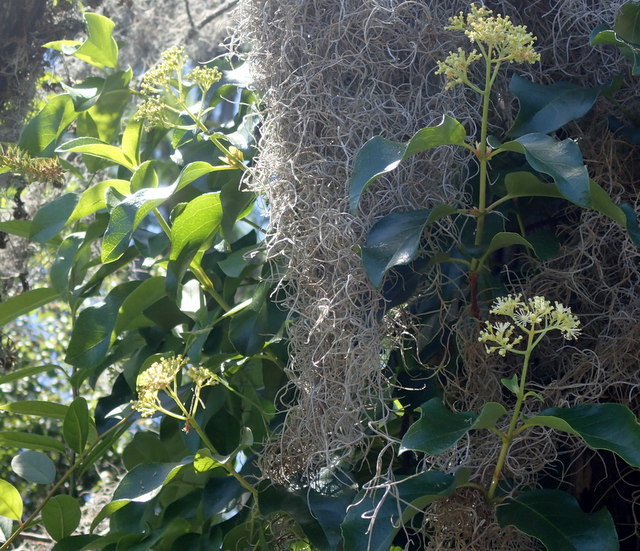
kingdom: Plantae
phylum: Tracheophyta
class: Magnoliopsida
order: Cornales
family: Hydrangeaceae
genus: Hydrangea
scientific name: Hydrangea barbara
